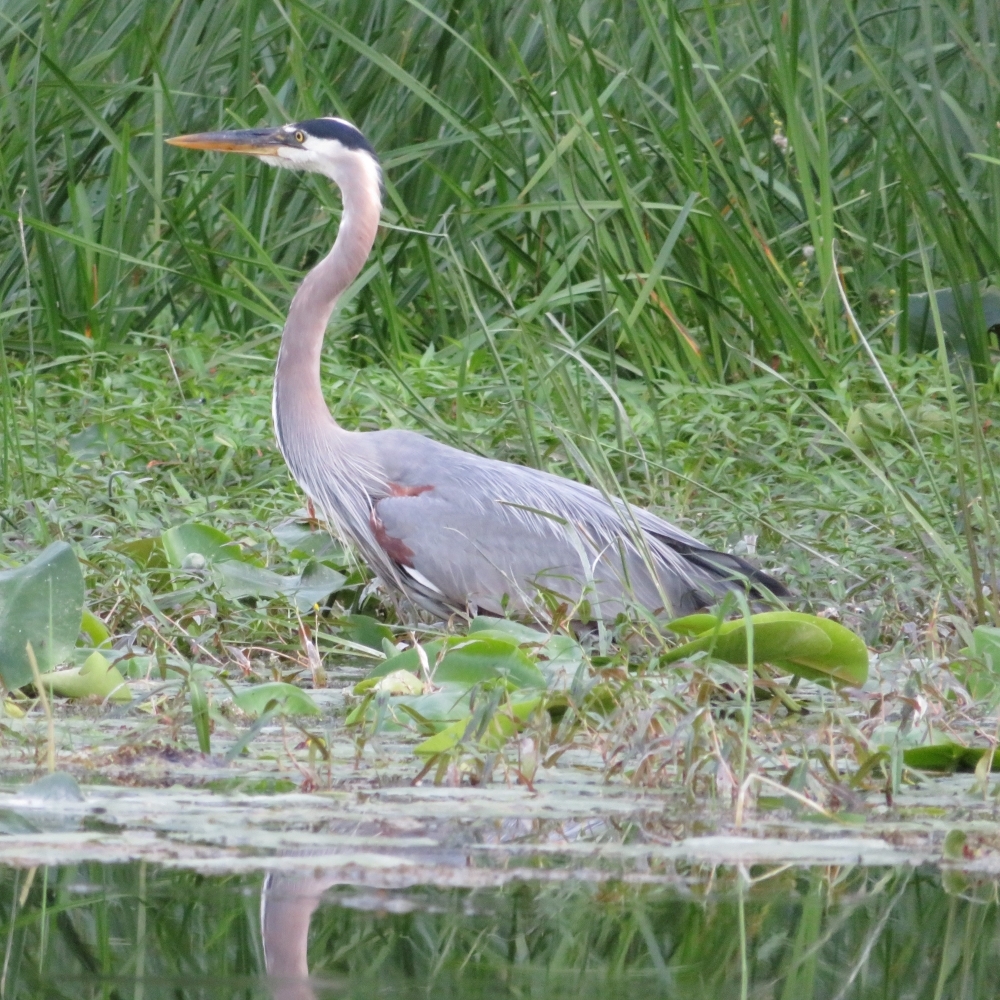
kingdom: Animalia
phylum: Chordata
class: Aves
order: Pelecaniformes
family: Ardeidae
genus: Ardea
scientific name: Ardea herodias
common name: Great blue heron
